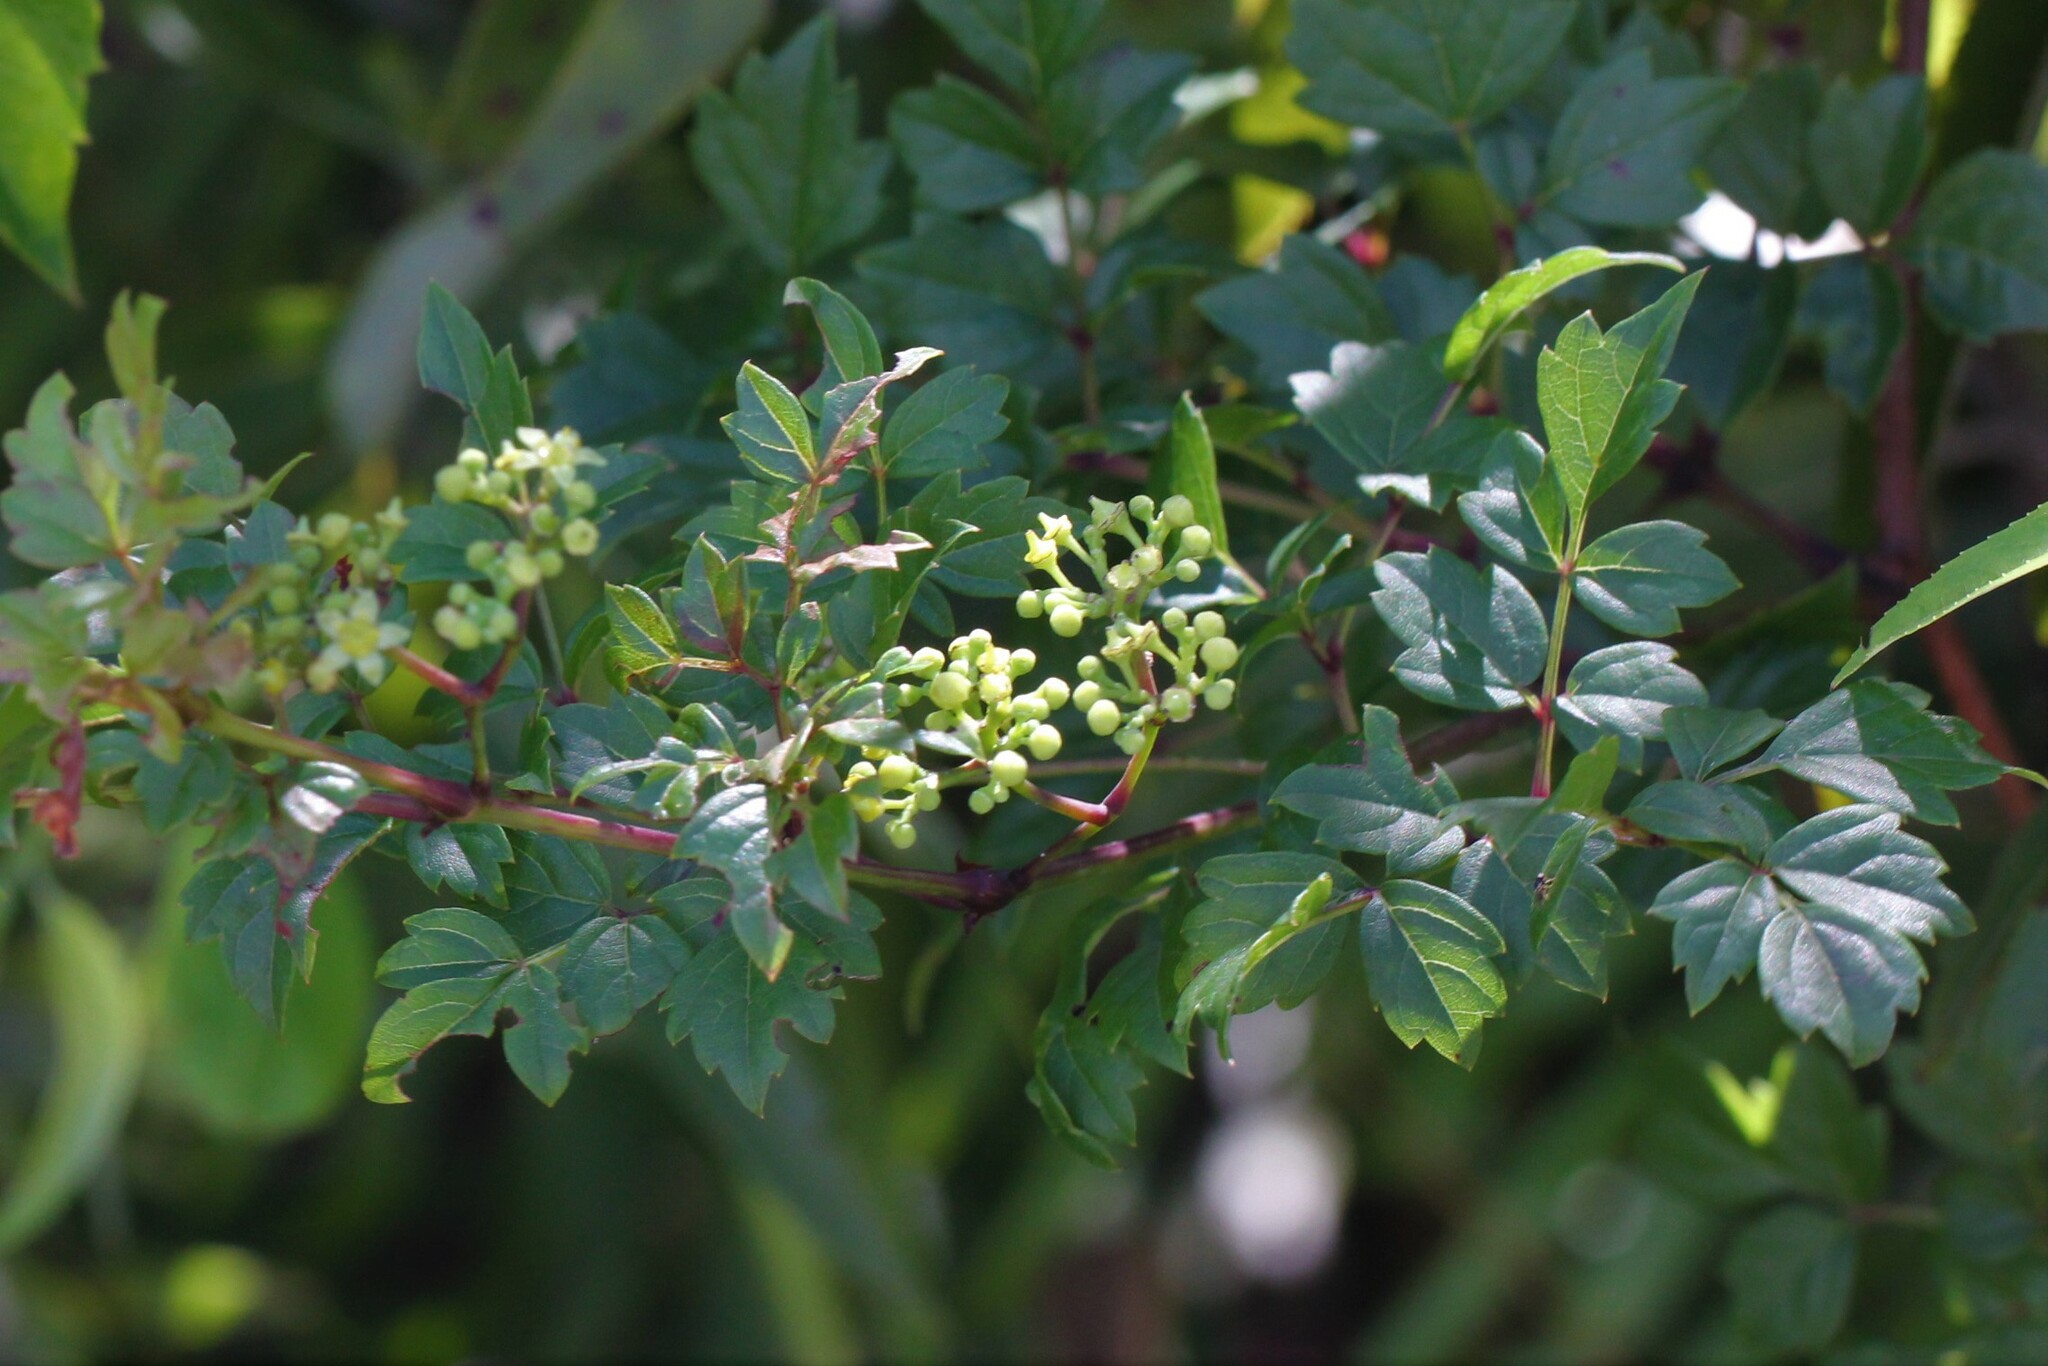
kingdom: Plantae
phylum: Tracheophyta
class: Magnoliopsida
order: Vitales
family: Vitaceae
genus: Nekemias
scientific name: Nekemias arborea
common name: Peppervine
